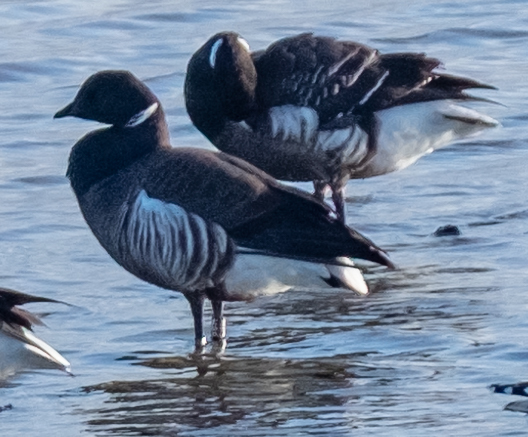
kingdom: Animalia
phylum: Chordata
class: Aves
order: Anseriformes
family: Anatidae
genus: Branta
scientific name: Branta bernicla
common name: Brant goose
